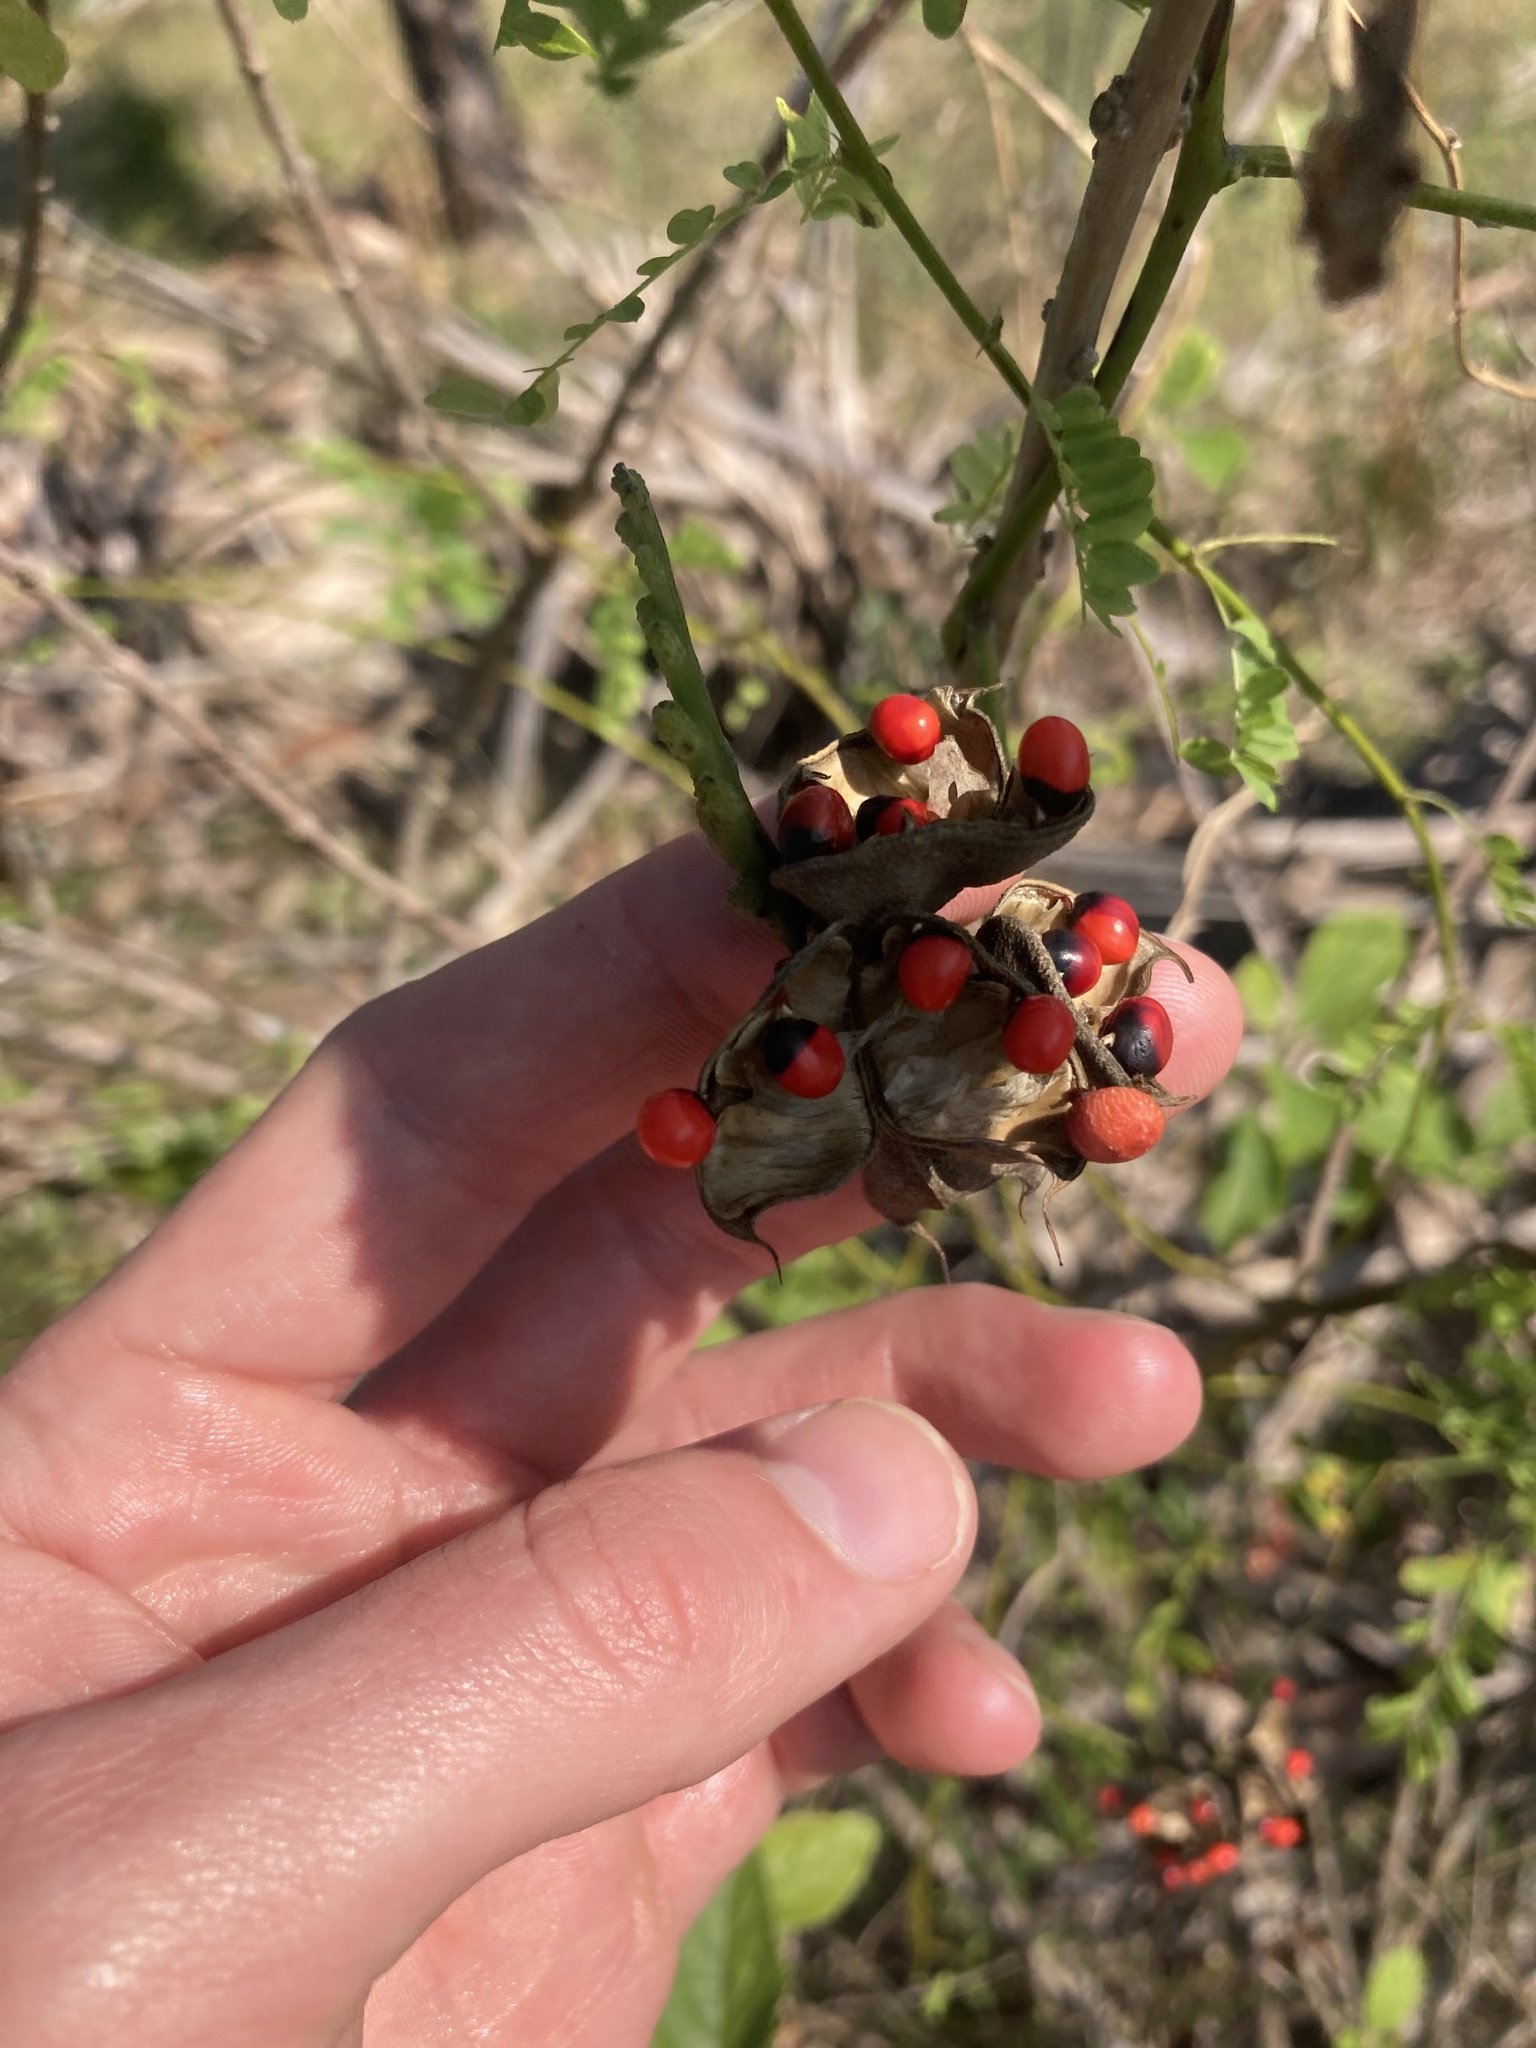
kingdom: Plantae
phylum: Tracheophyta
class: Magnoliopsida
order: Fabales
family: Fabaceae
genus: Abrus
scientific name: Abrus precatorius
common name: Rosarypea
